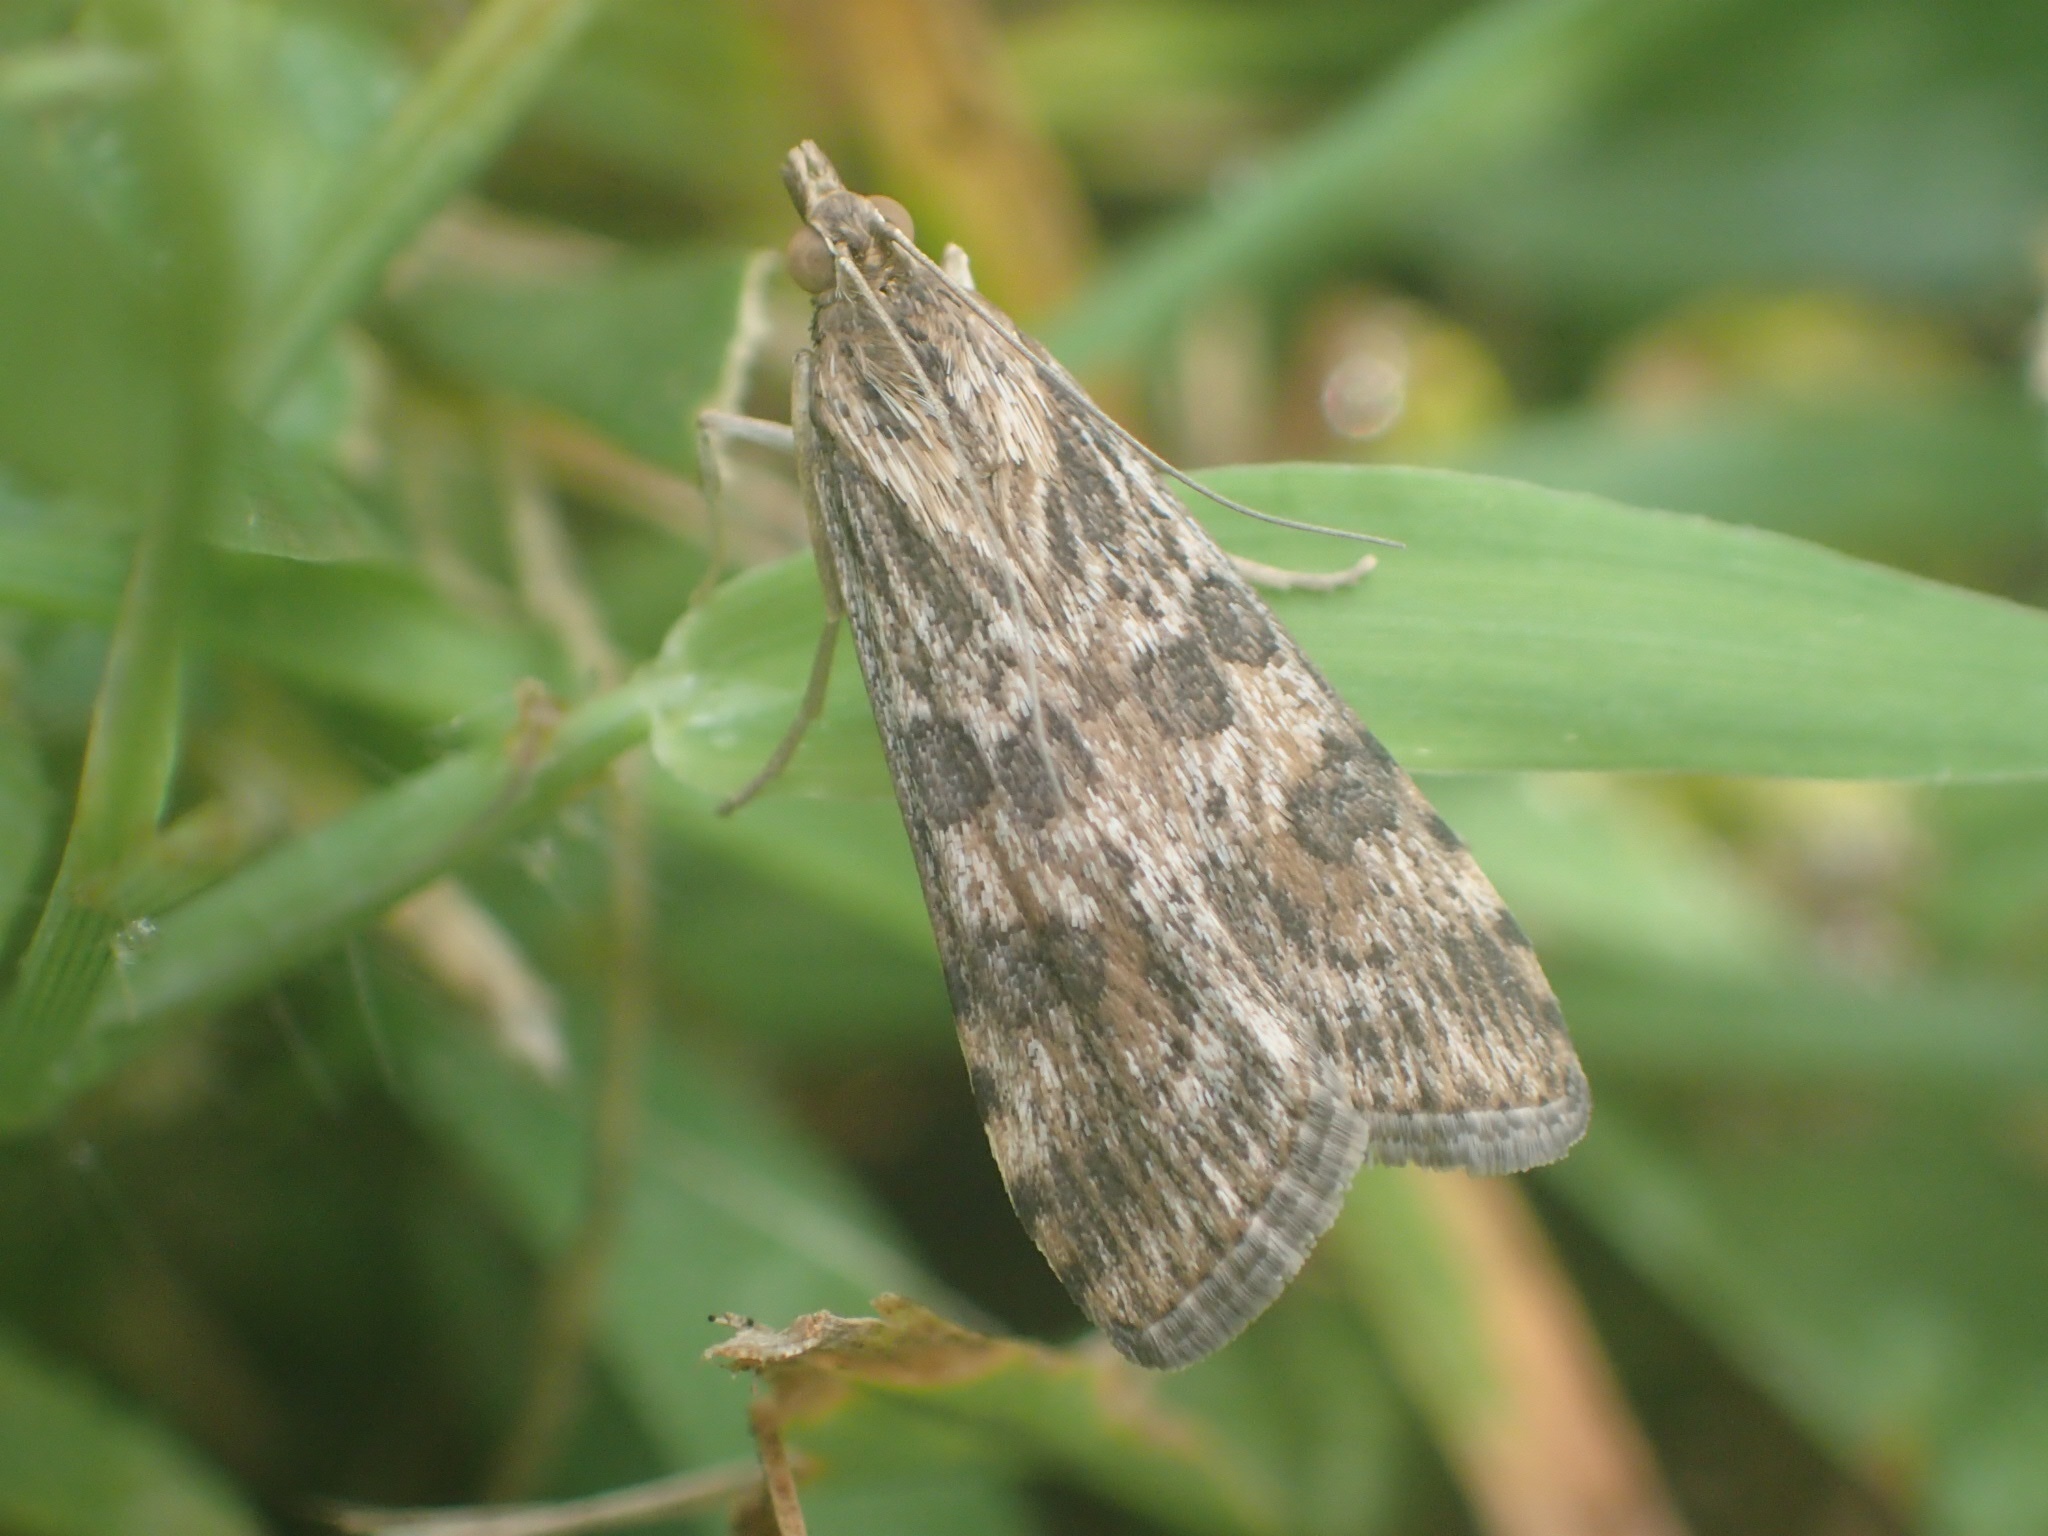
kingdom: Animalia
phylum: Arthropoda
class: Insecta
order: Lepidoptera
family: Crambidae
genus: Nomophila
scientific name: Nomophila nearctica
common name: American rush veneer
